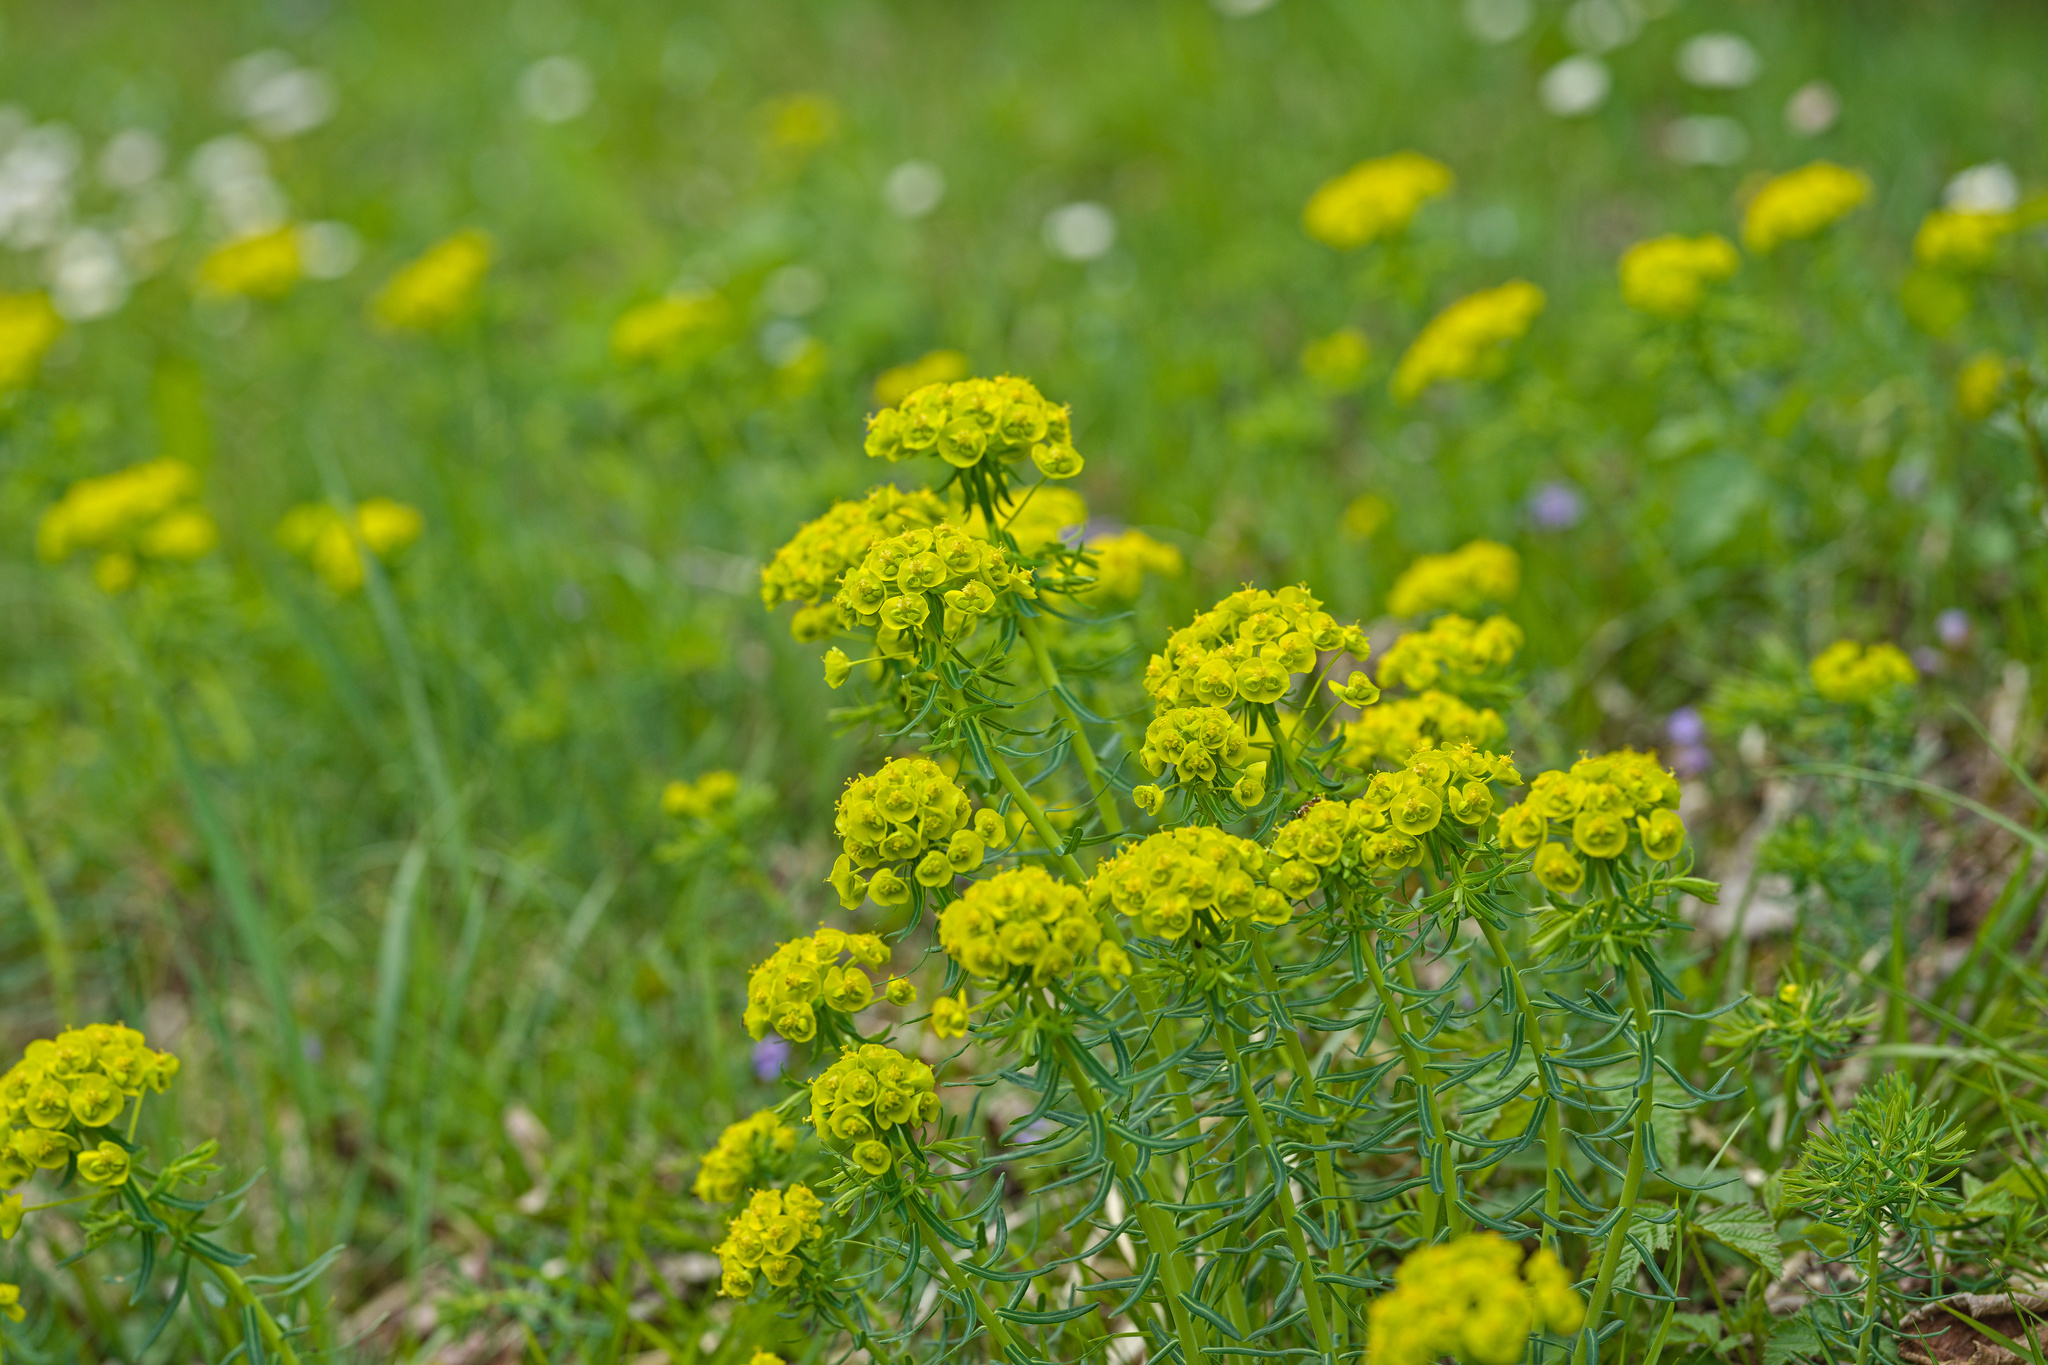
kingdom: Plantae
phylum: Tracheophyta
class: Magnoliopsida
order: Malpighiales
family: Euphorbiaceae
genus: Euphorbia
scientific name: Euphorbia cyparissias
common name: Cypress spurge
